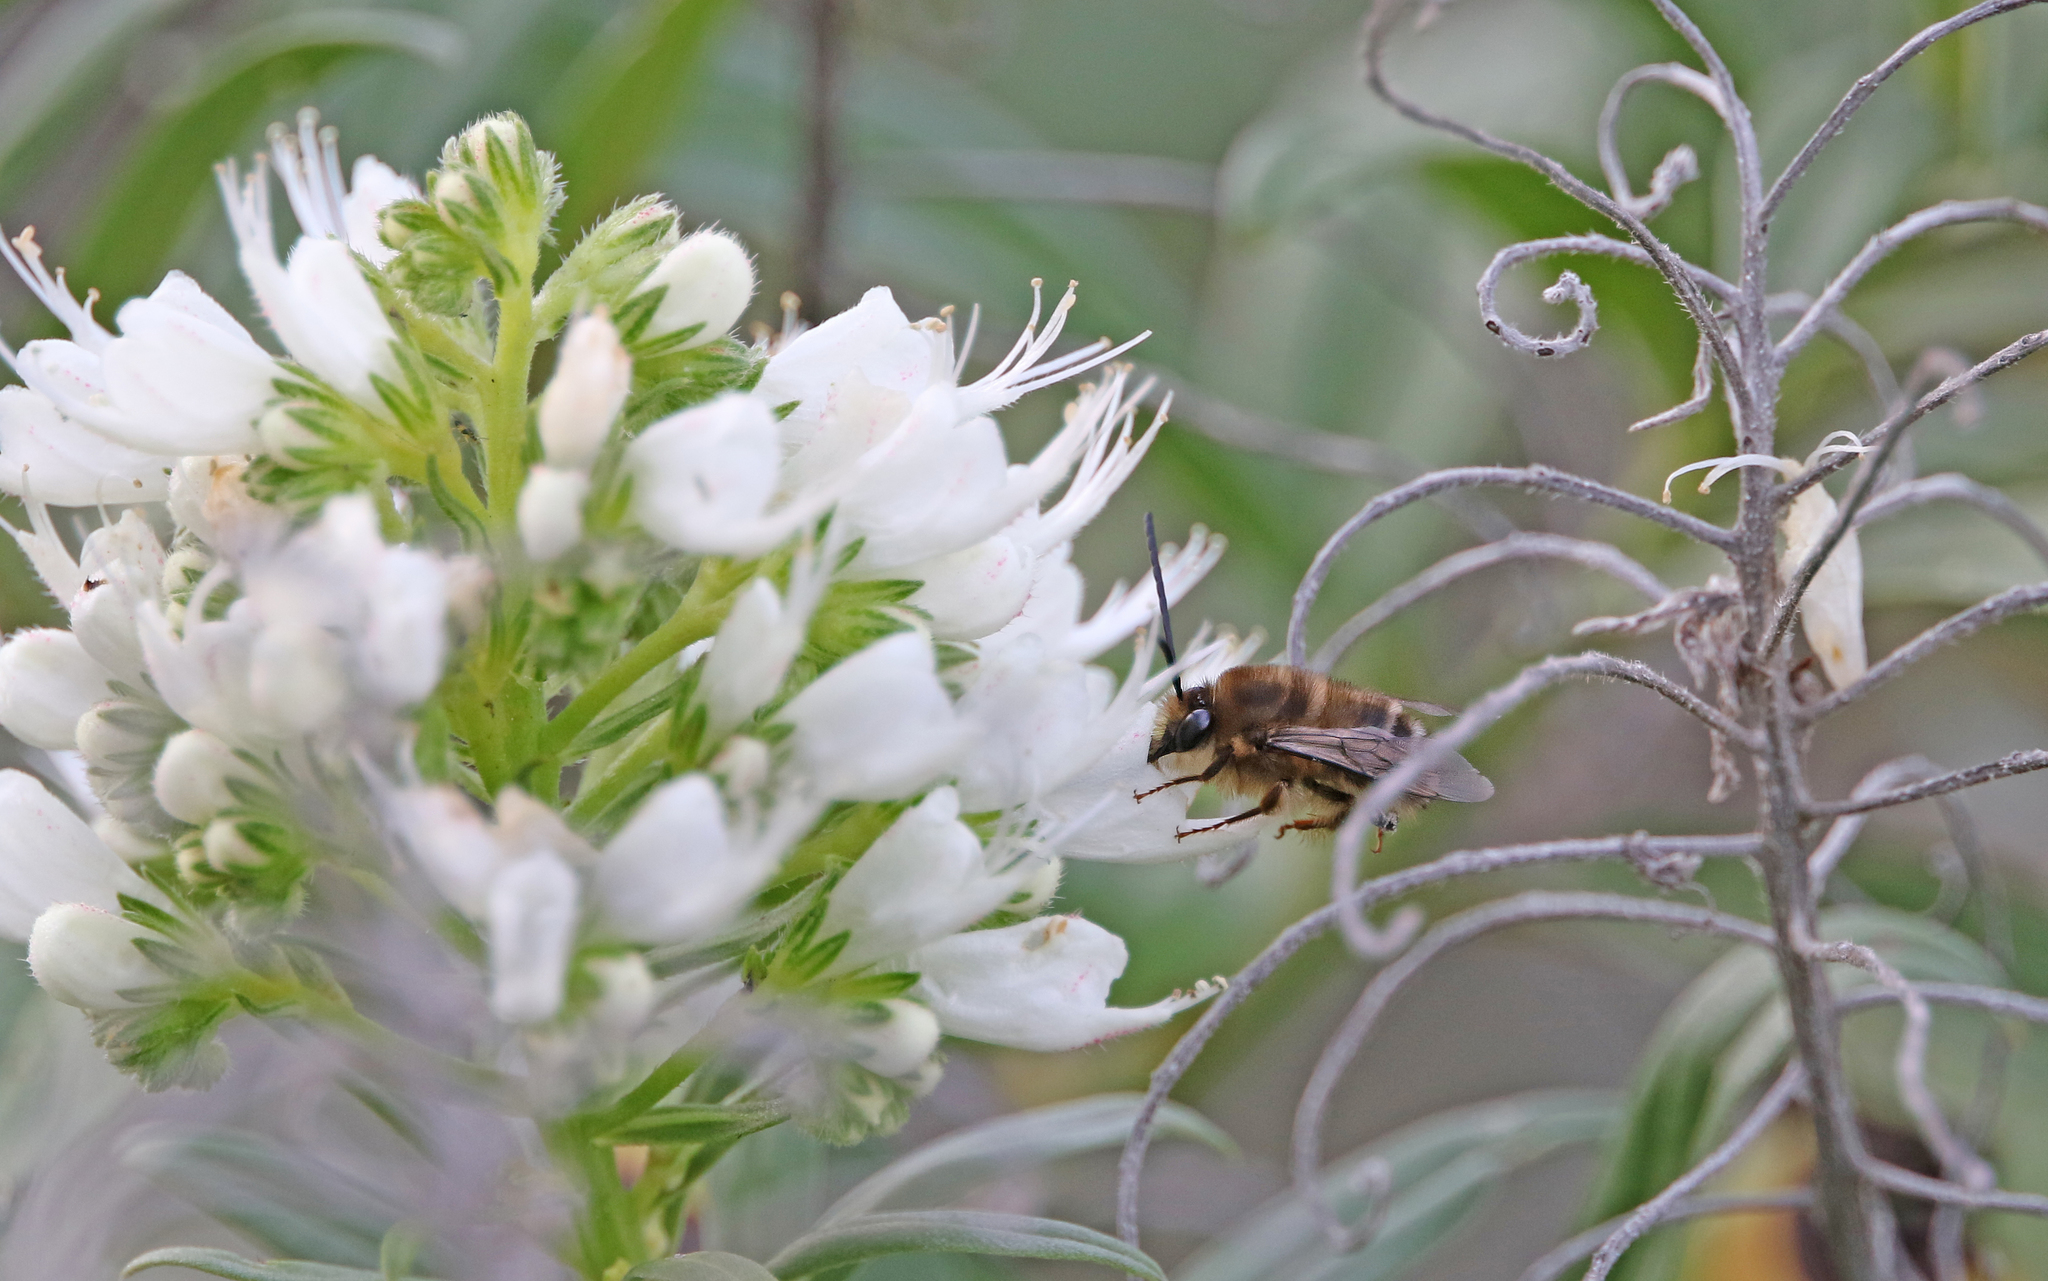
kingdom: Animalia
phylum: Arthropoda
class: Insecta
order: Hymenoptera
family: Apidae
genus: Eucera
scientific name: Eucera gracilipes
